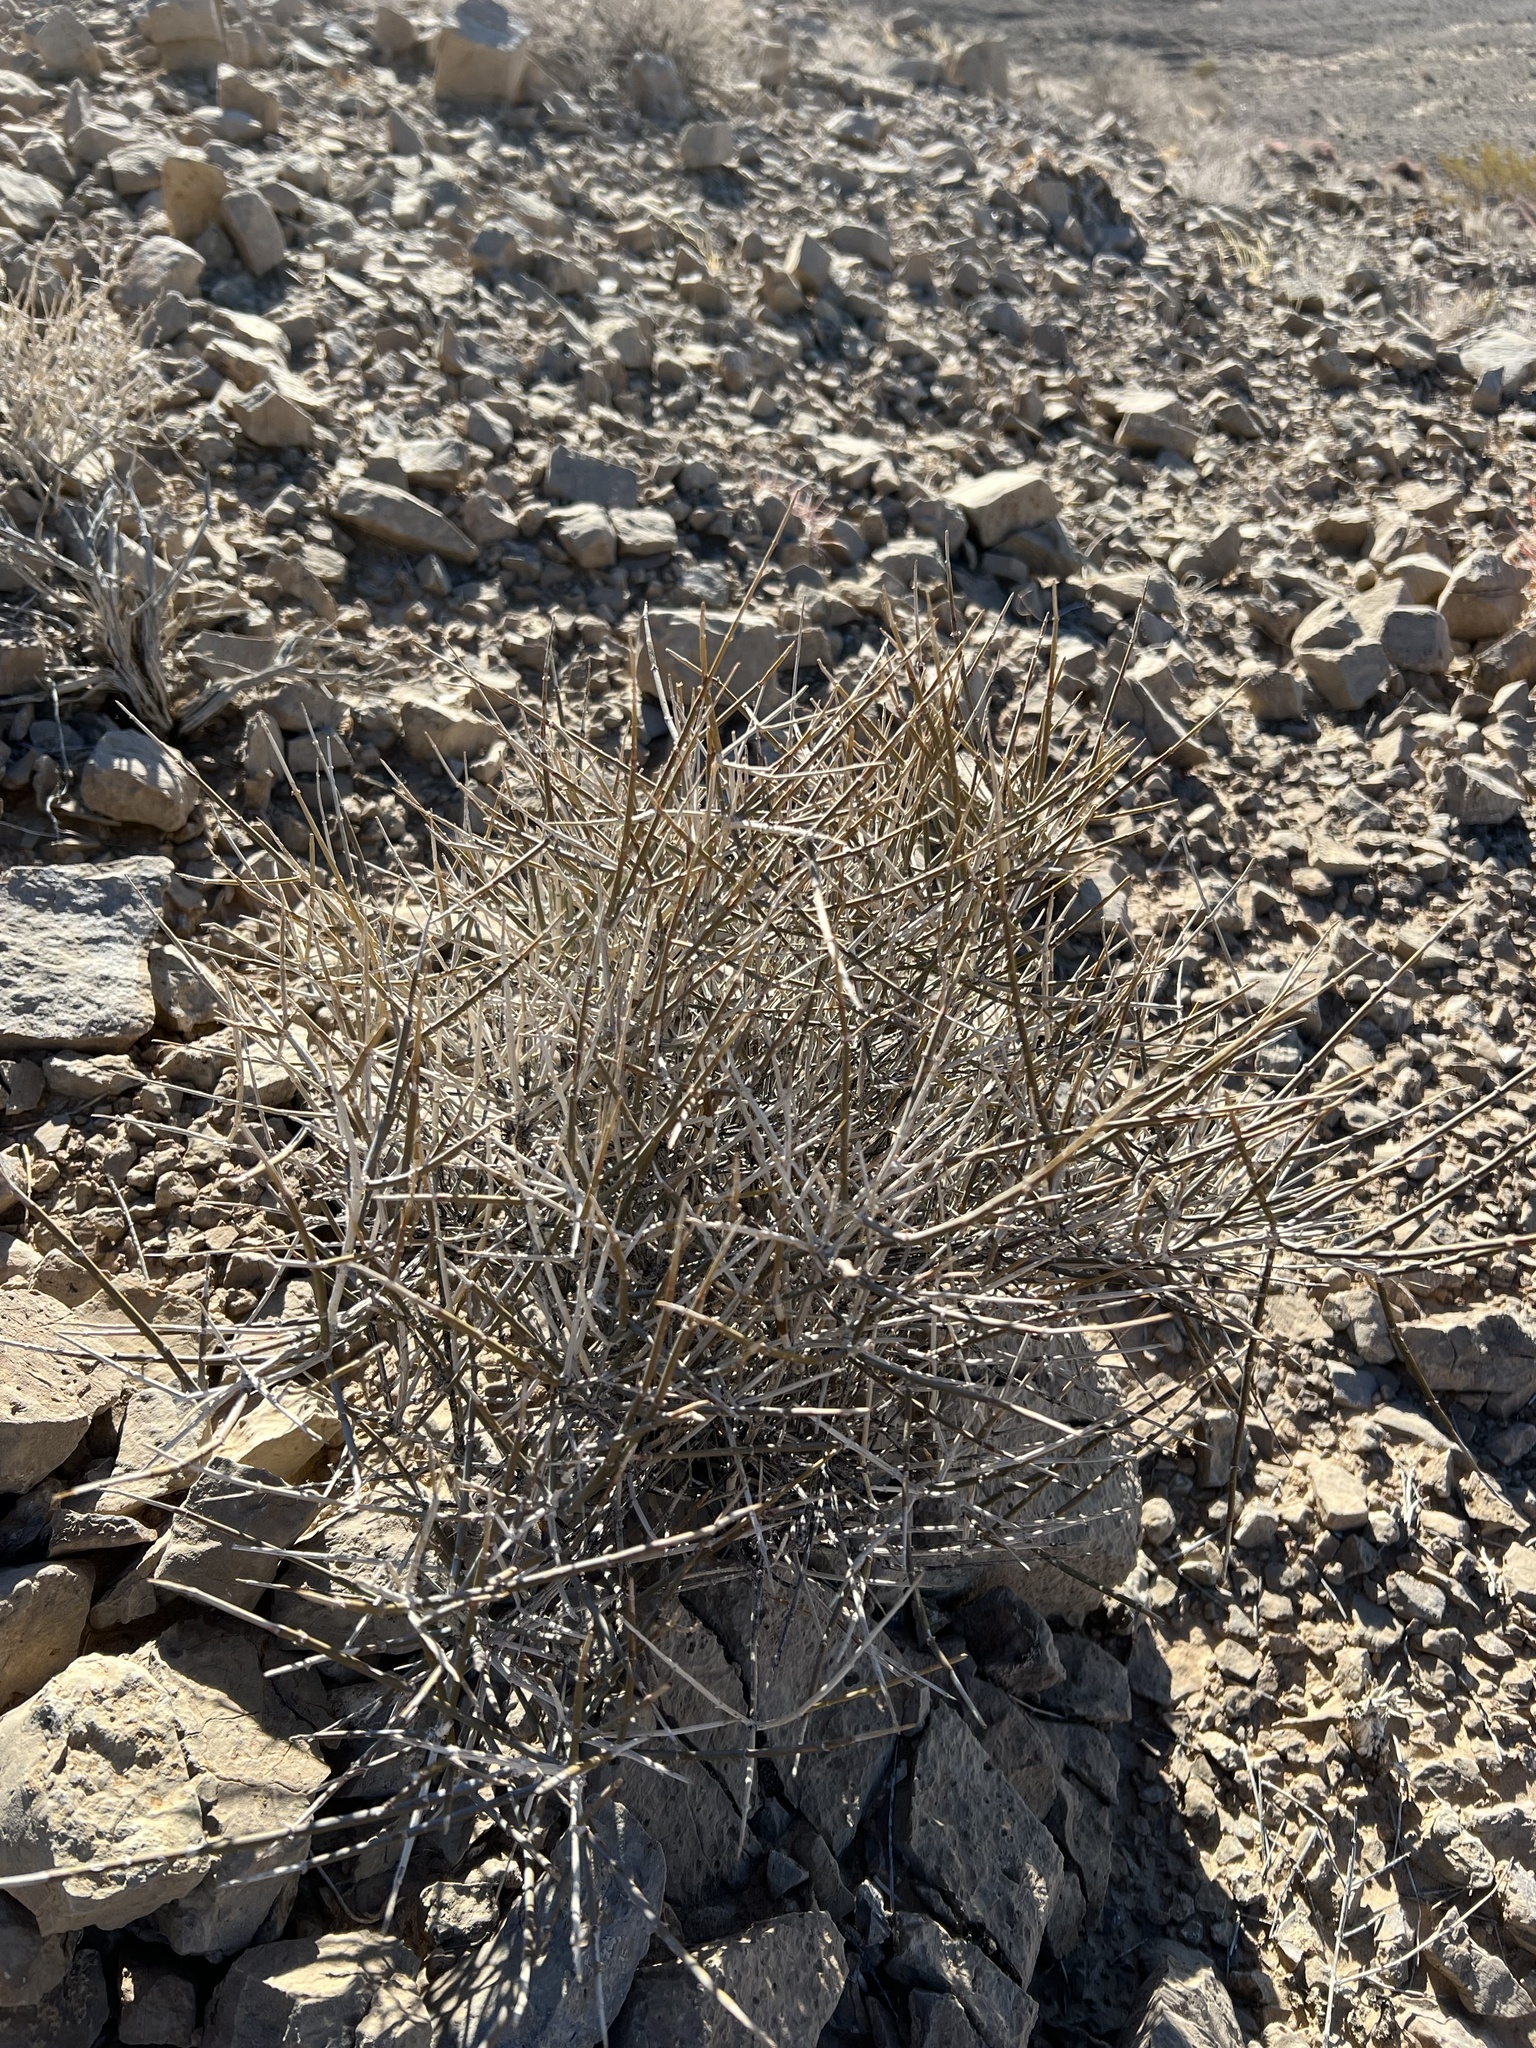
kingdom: Plantae
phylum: Tracheophyta
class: Gnetopsida
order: Ephedrales
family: Ephedraceae
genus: Ephedra
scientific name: Ephedra nevadensis
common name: Gray ephedra
